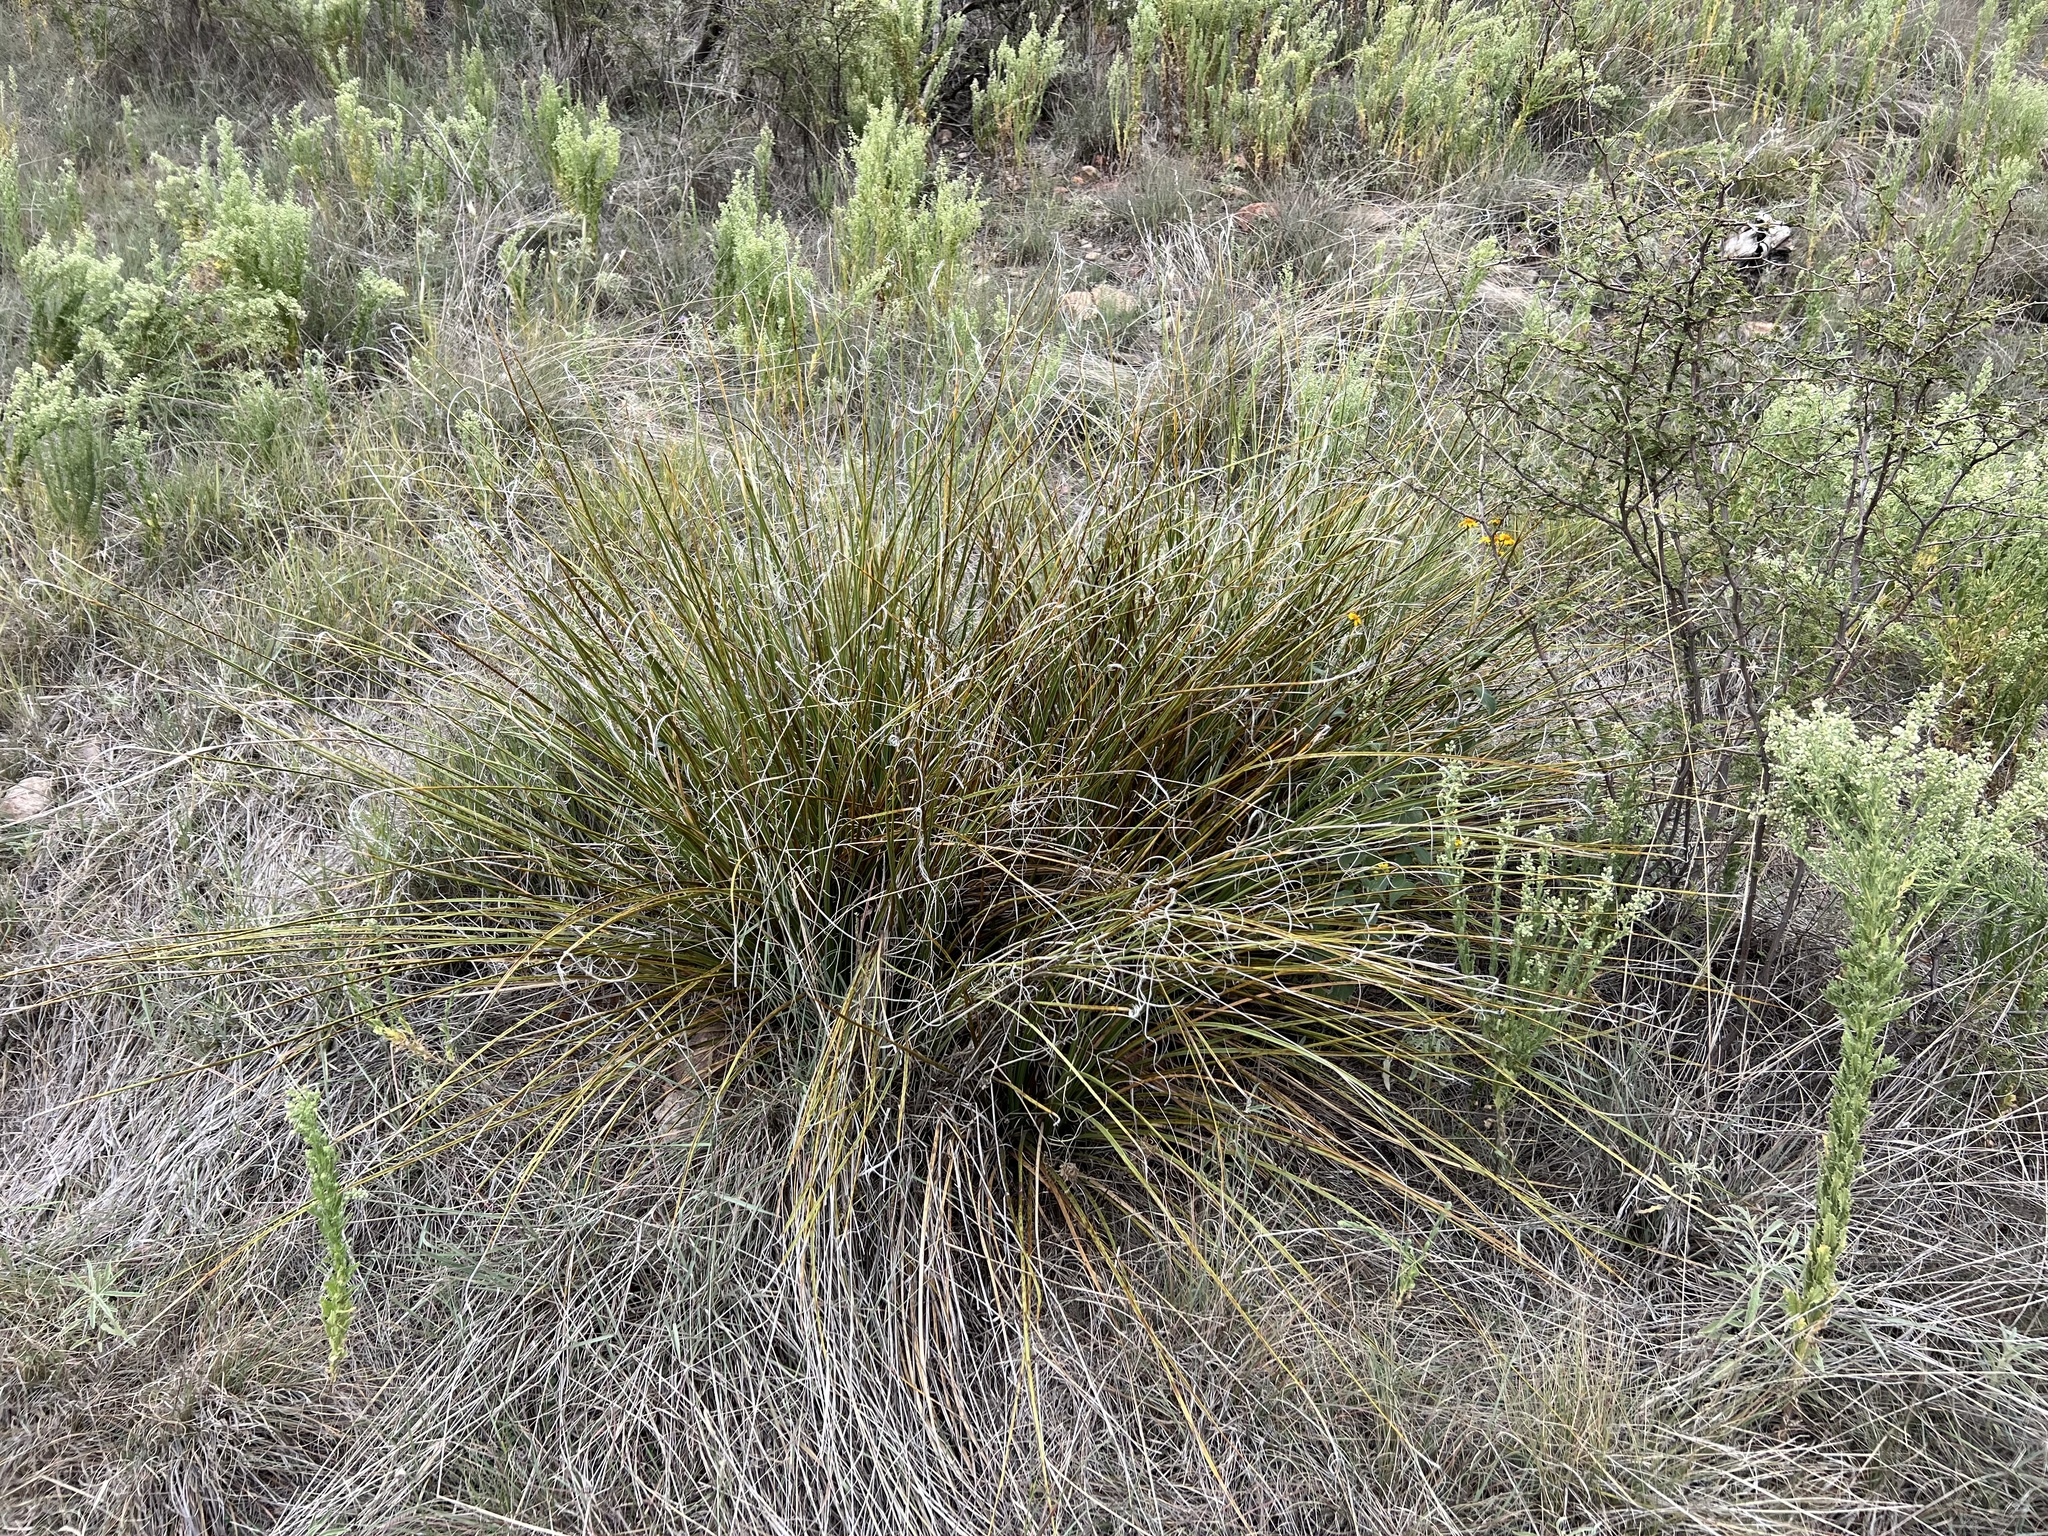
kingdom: Plantae
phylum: Tracheophyta
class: Liliopsida
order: Asparagales
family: Asparagaceae
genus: Nolina
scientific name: Nolina microcarpa
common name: Bear-grass
